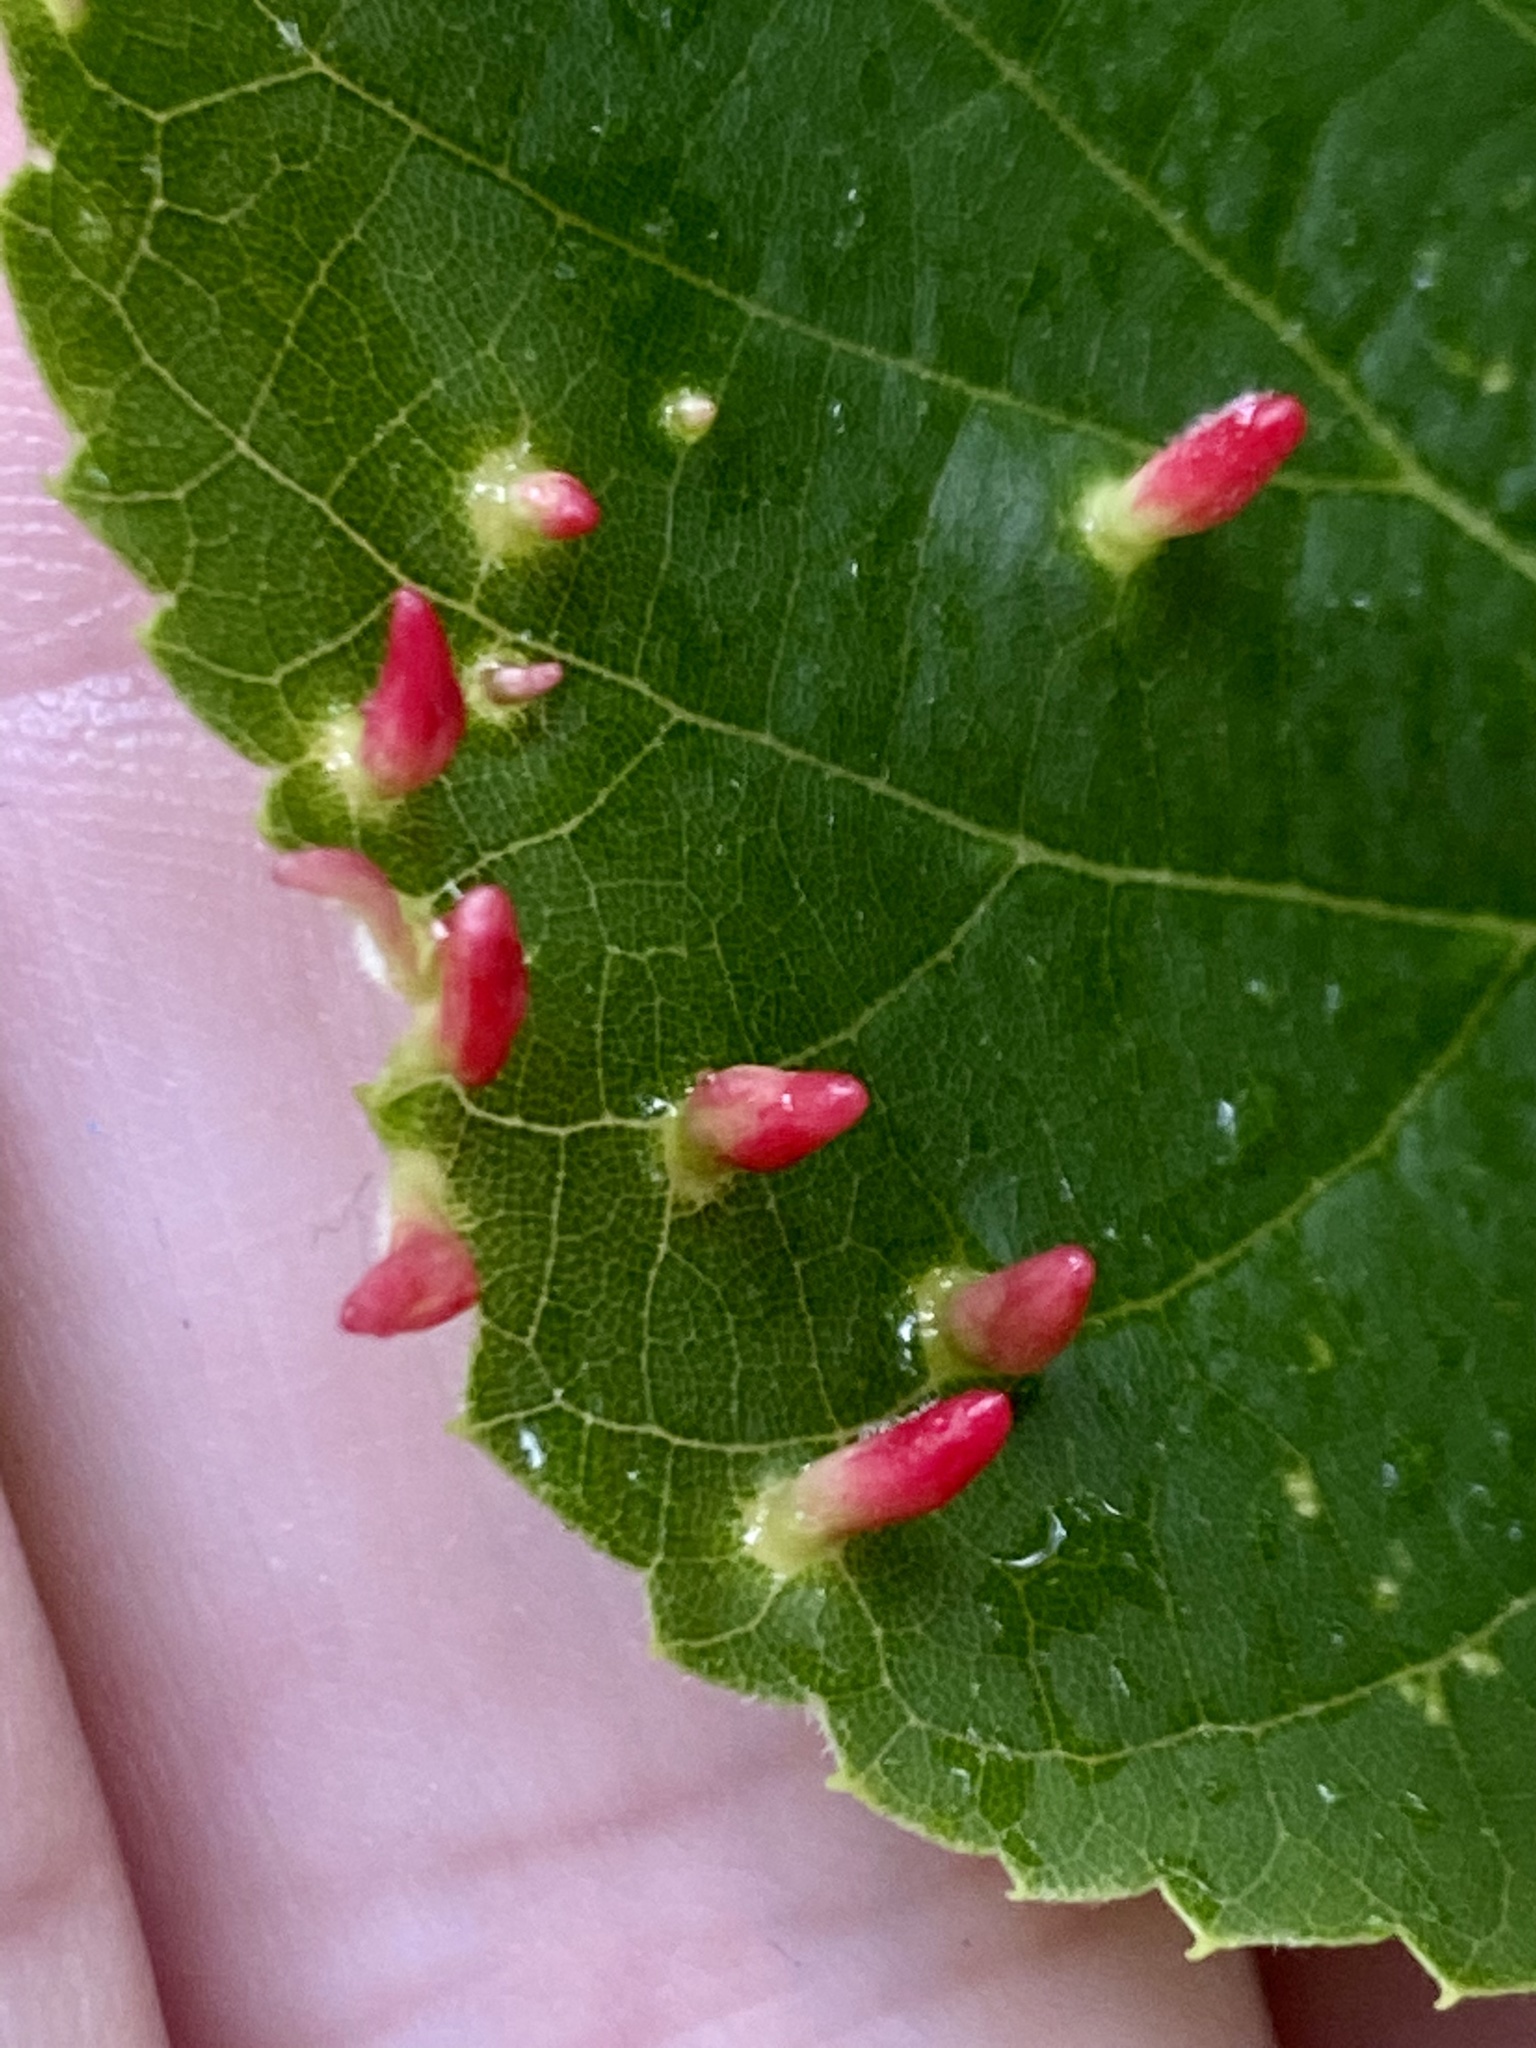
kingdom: Animalia
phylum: Arthropoda
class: Arachnida
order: Trombidiformes
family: Eriophyidae
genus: Eriophyes
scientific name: Eriophyes tiliae
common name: Red nail gall mite
